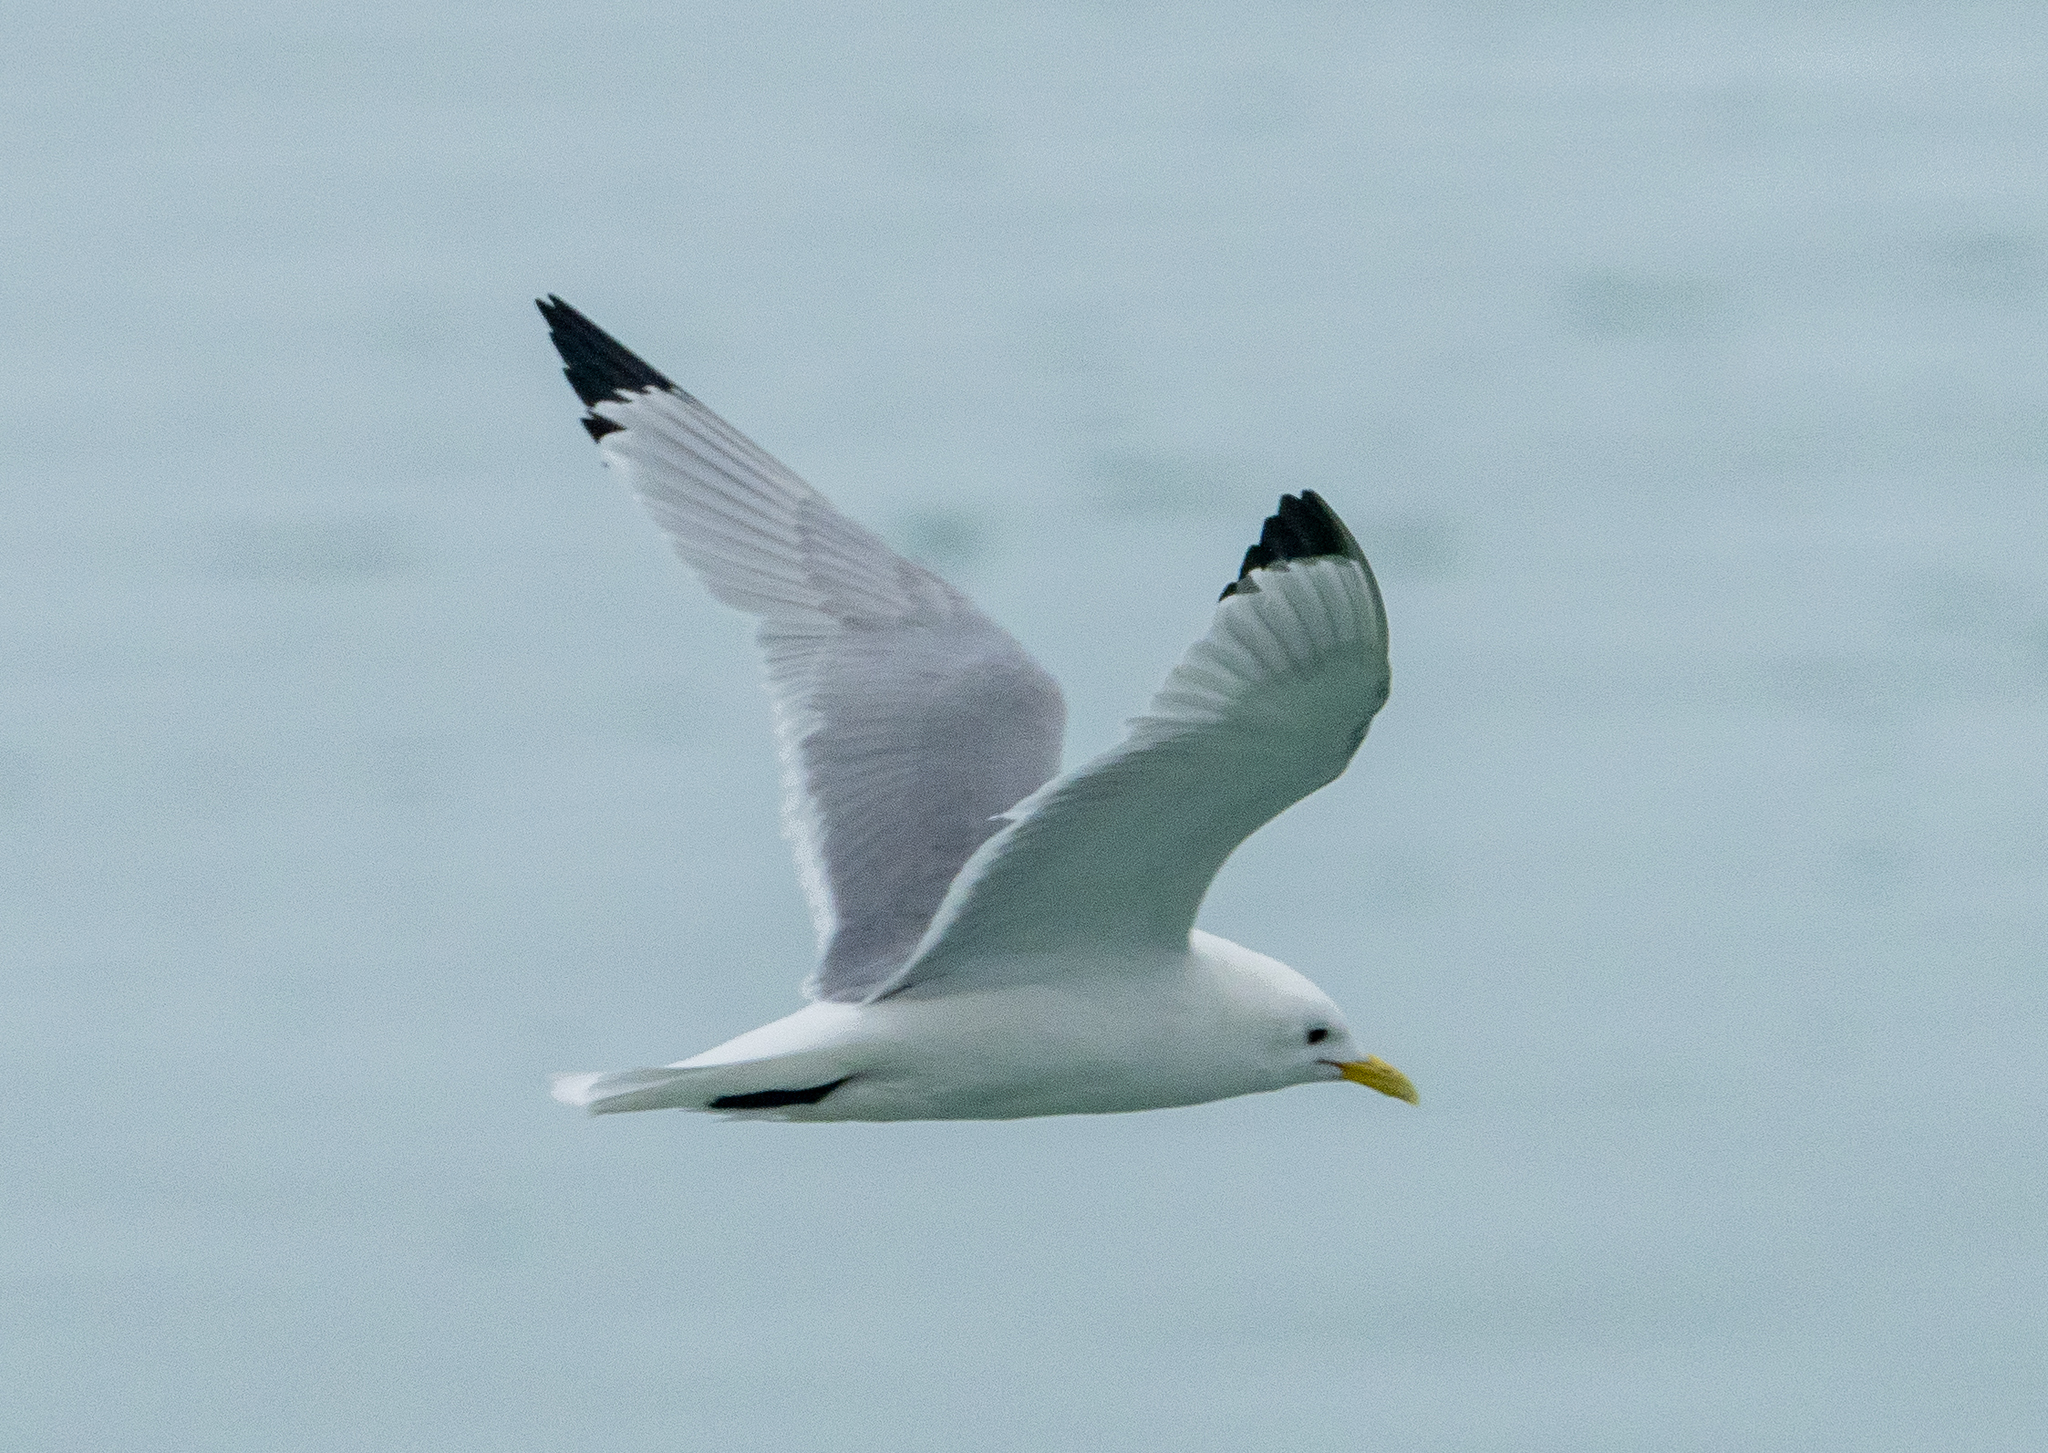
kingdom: Animalia
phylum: Chordata
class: Aves
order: Charadriiformes
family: Laridae
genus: Rissa
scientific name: Rissa tridactyla
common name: Black-legged kittiwake
